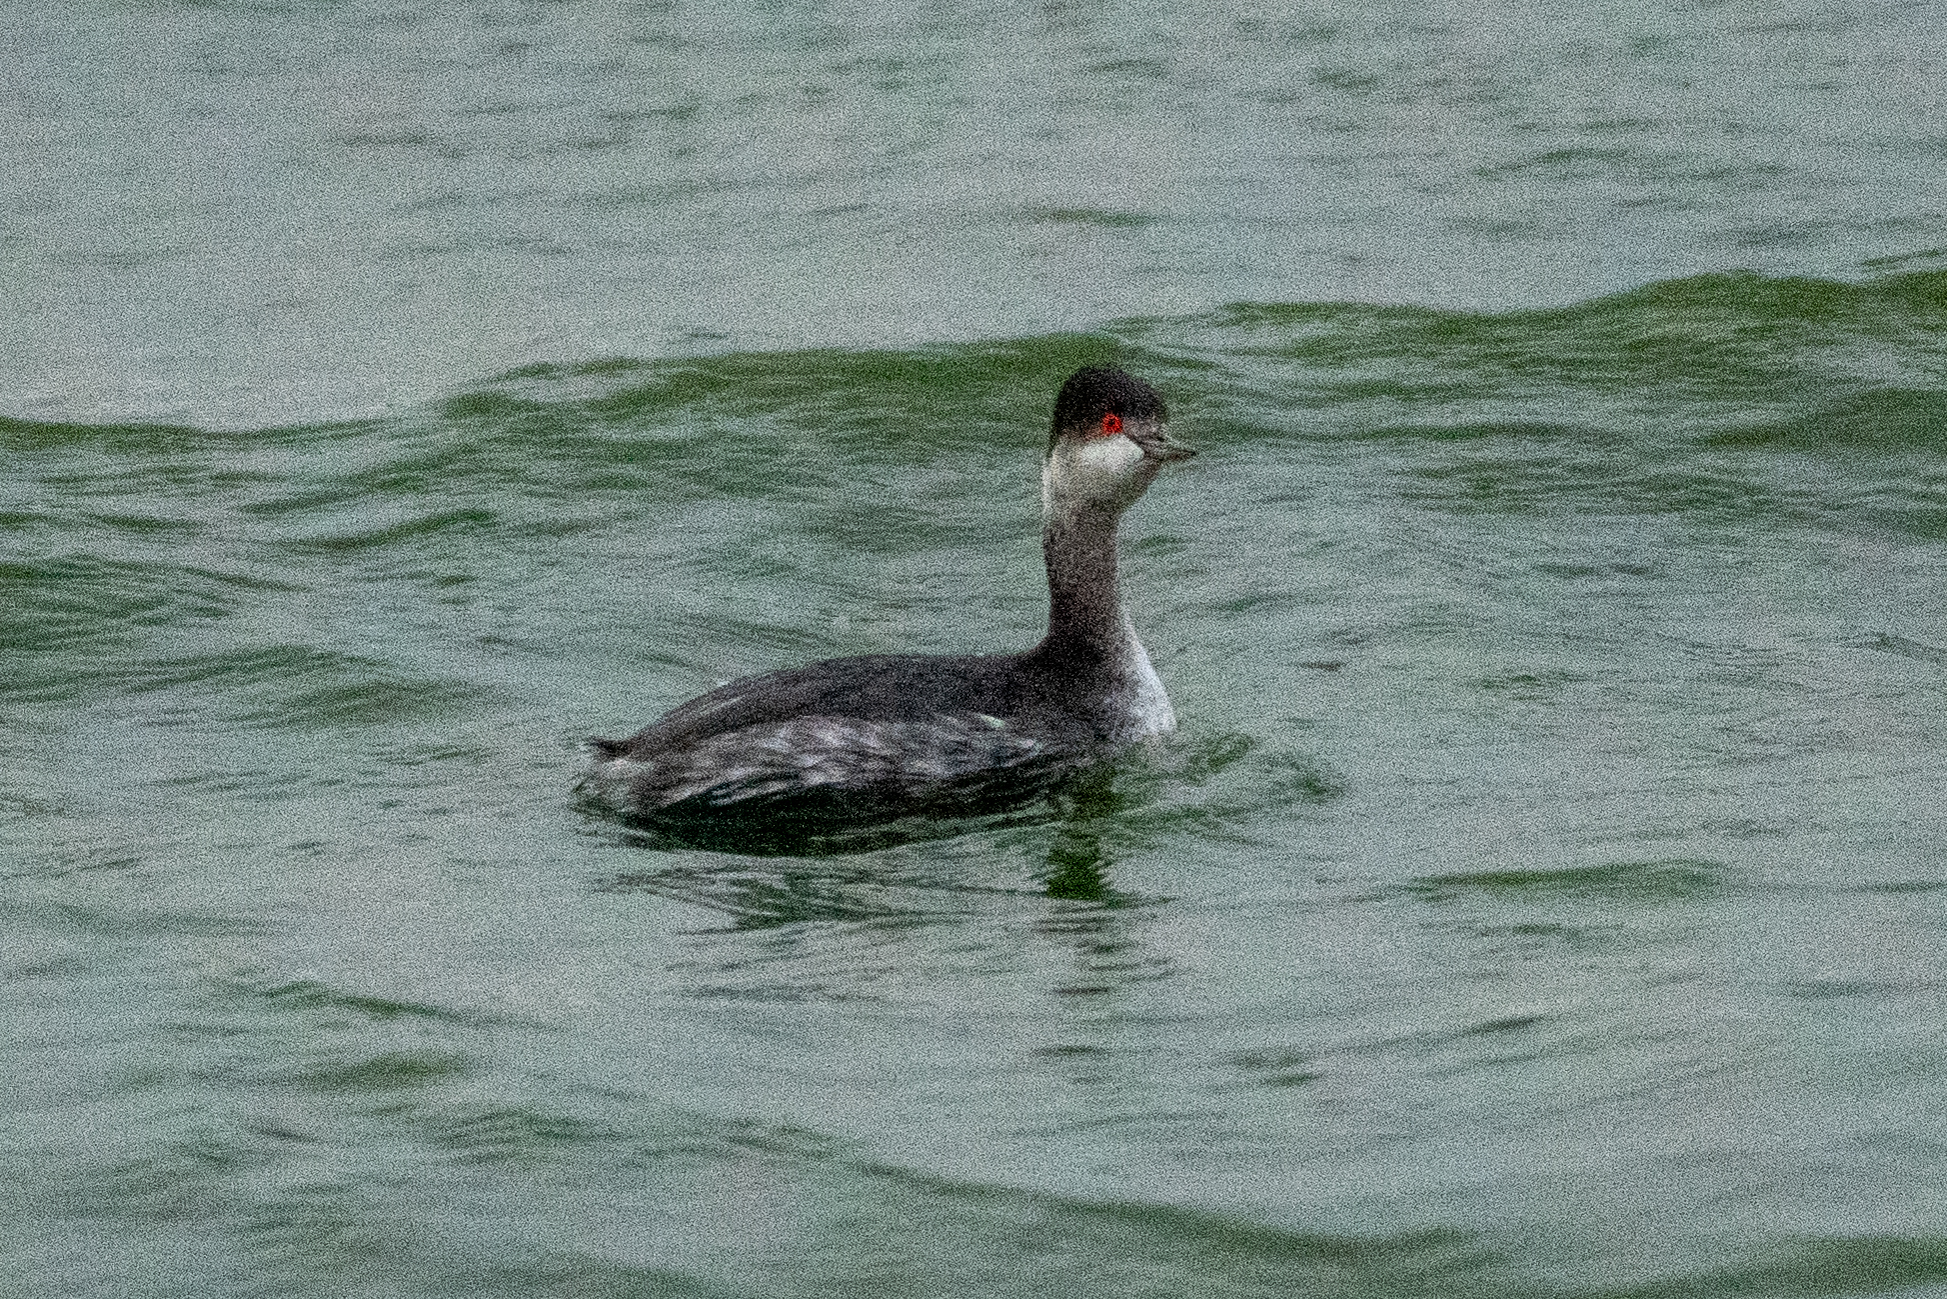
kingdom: Animalia
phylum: Chordata
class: Aves
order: Podicipediformes
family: Podicipedidae
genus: Podiceps
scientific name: Podiceps nigricollis
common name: Black-necked grebe
